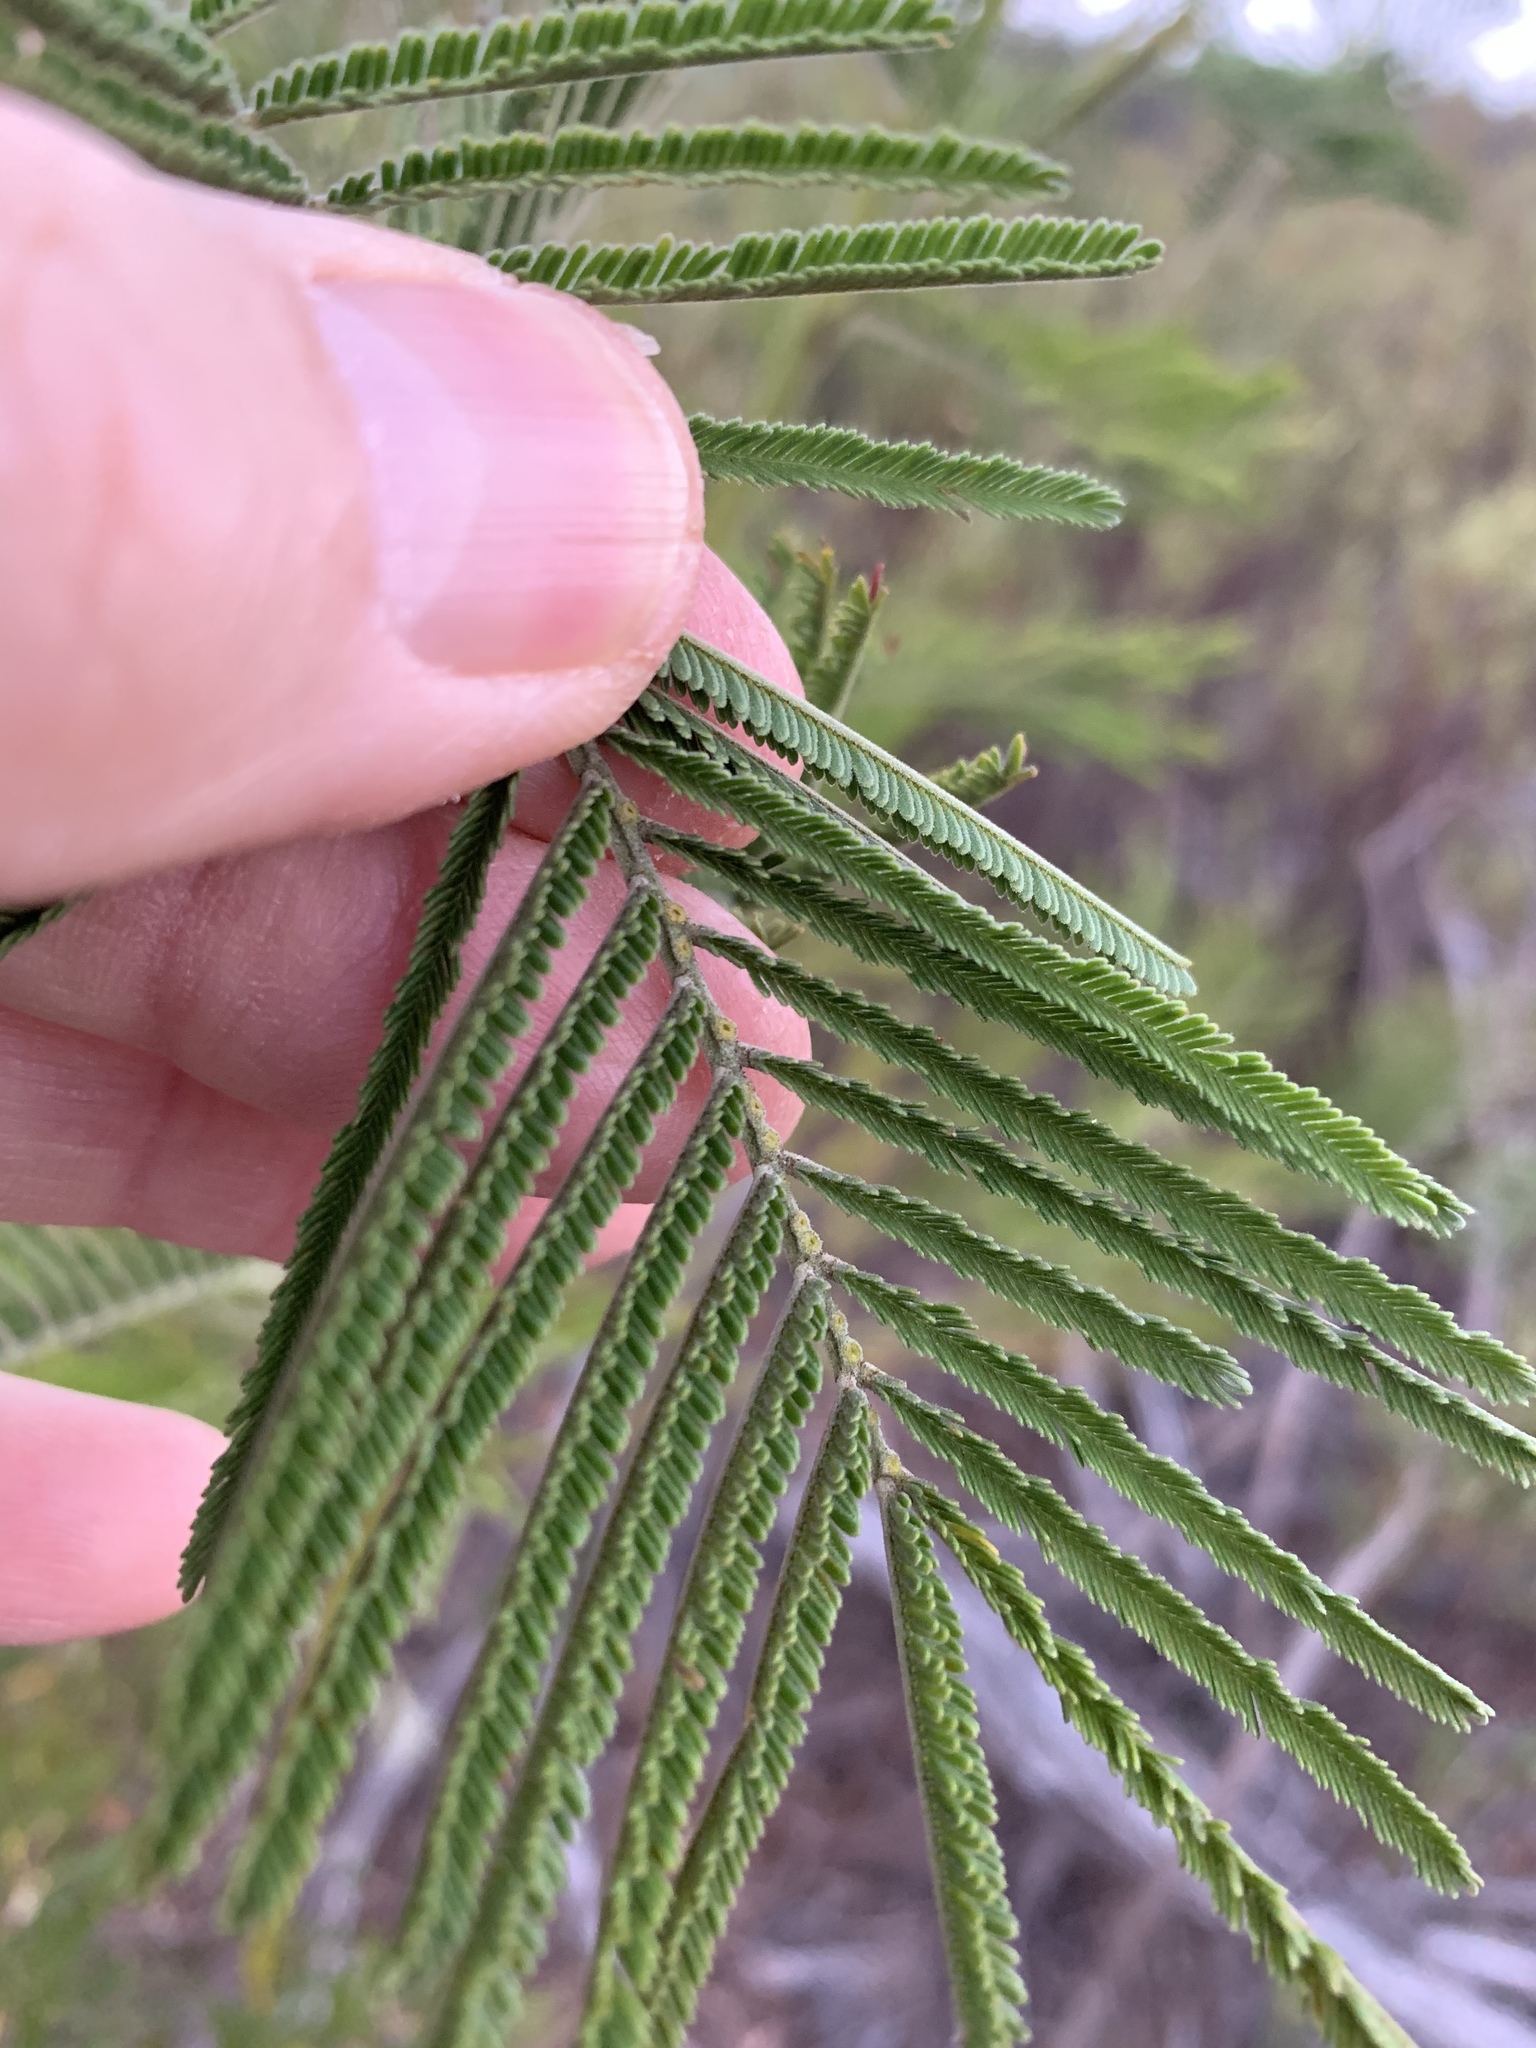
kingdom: Plantae
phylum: Tracheophyta
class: Magnoliopsida
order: Fabales
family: Fabaceae
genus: Acacia
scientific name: Acacia mearnsii
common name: Black wattle
